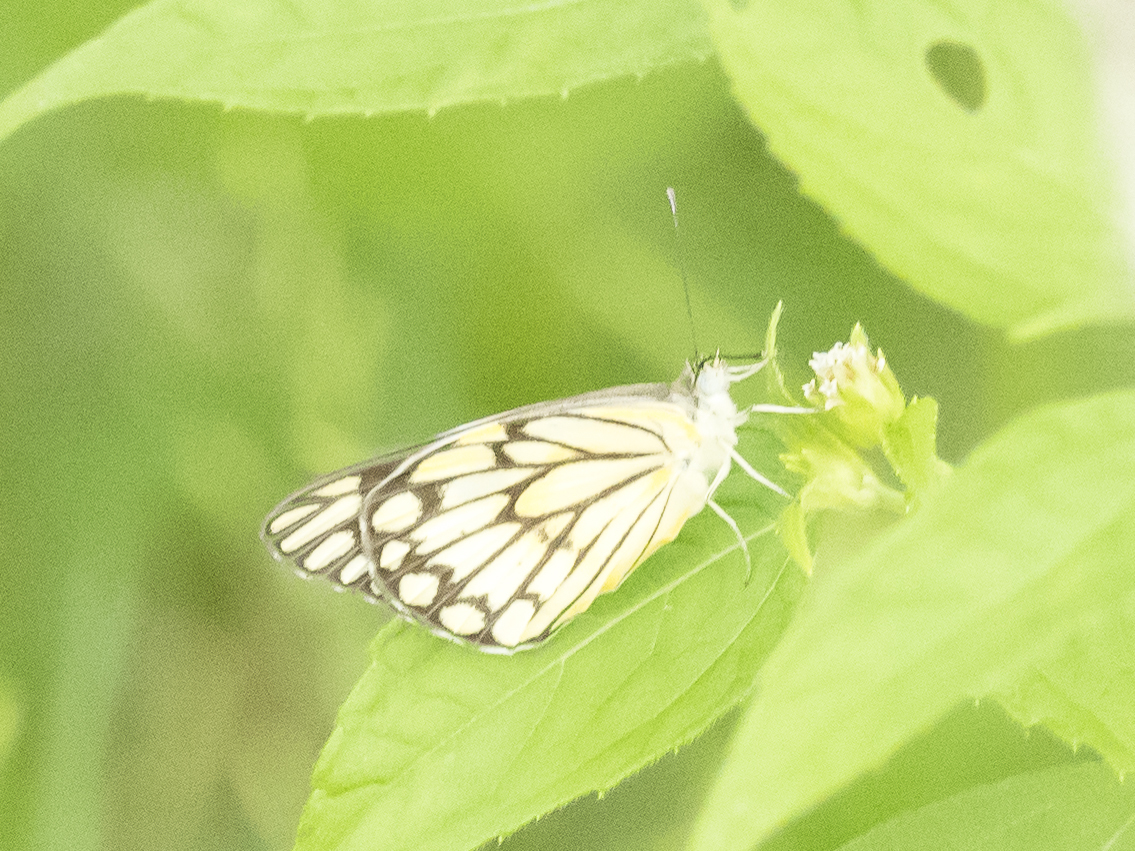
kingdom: Animalia
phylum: Arthropoda
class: Insecta
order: Lepidoptera
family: Pieridae
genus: Belenois
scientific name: Belenois aurota
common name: Brown-veined white
